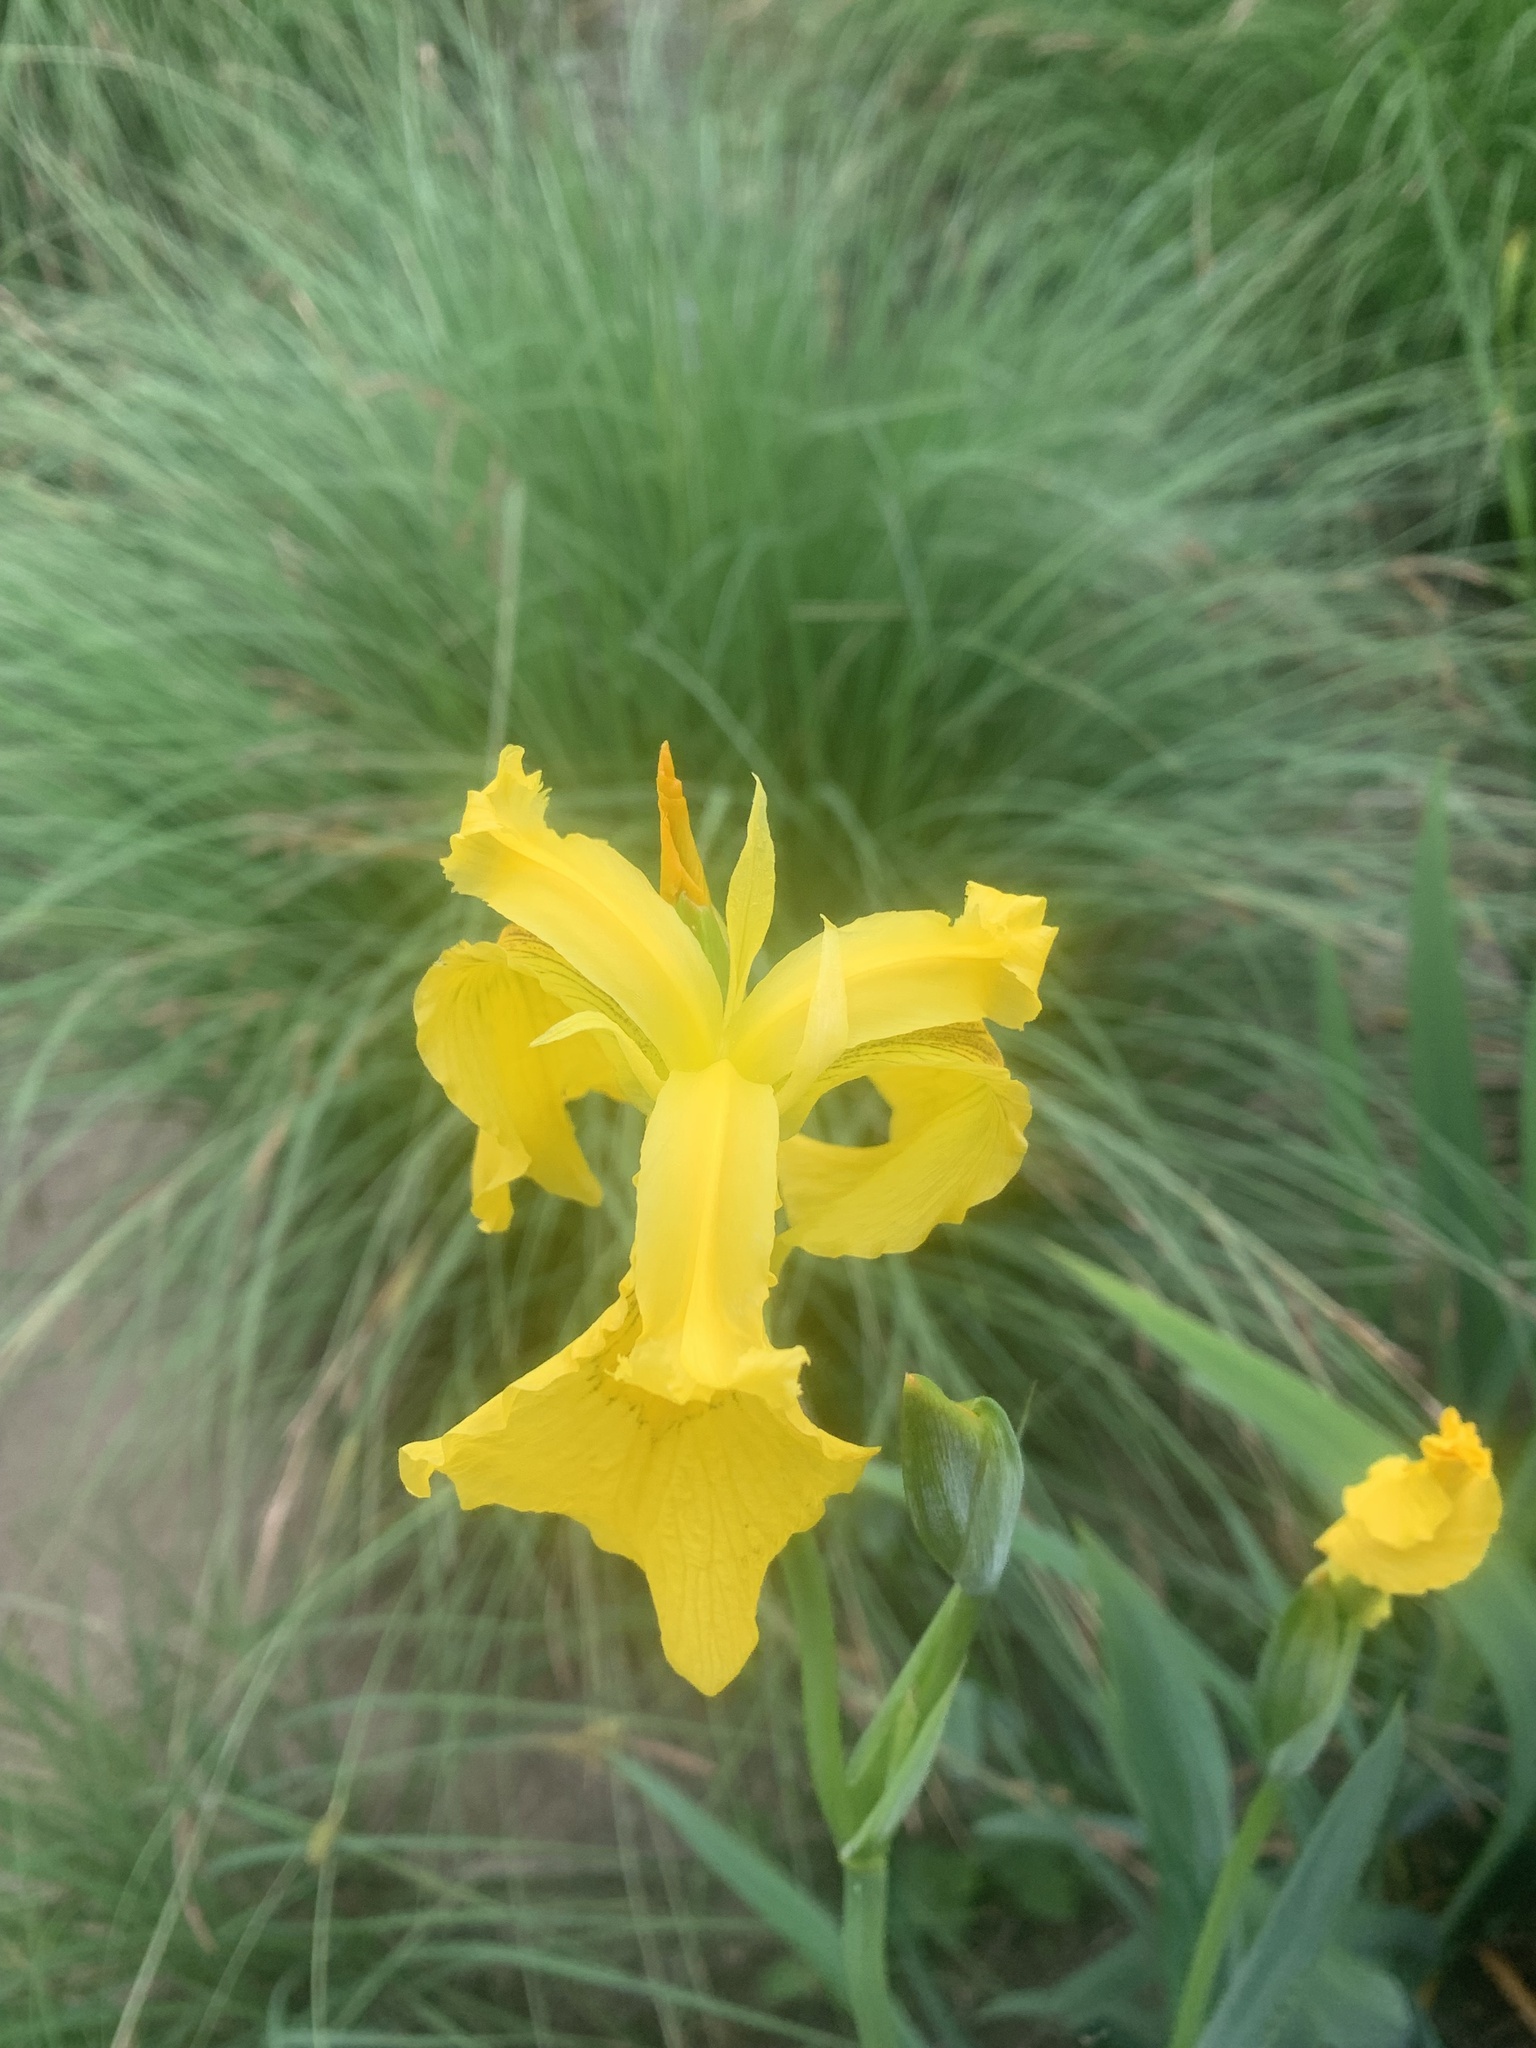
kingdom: Plantae
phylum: Tracheophyta
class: Liliopsida
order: Asparagales
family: Iridaceae
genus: Iris
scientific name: Iris pseudacorus
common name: Yellow flag
